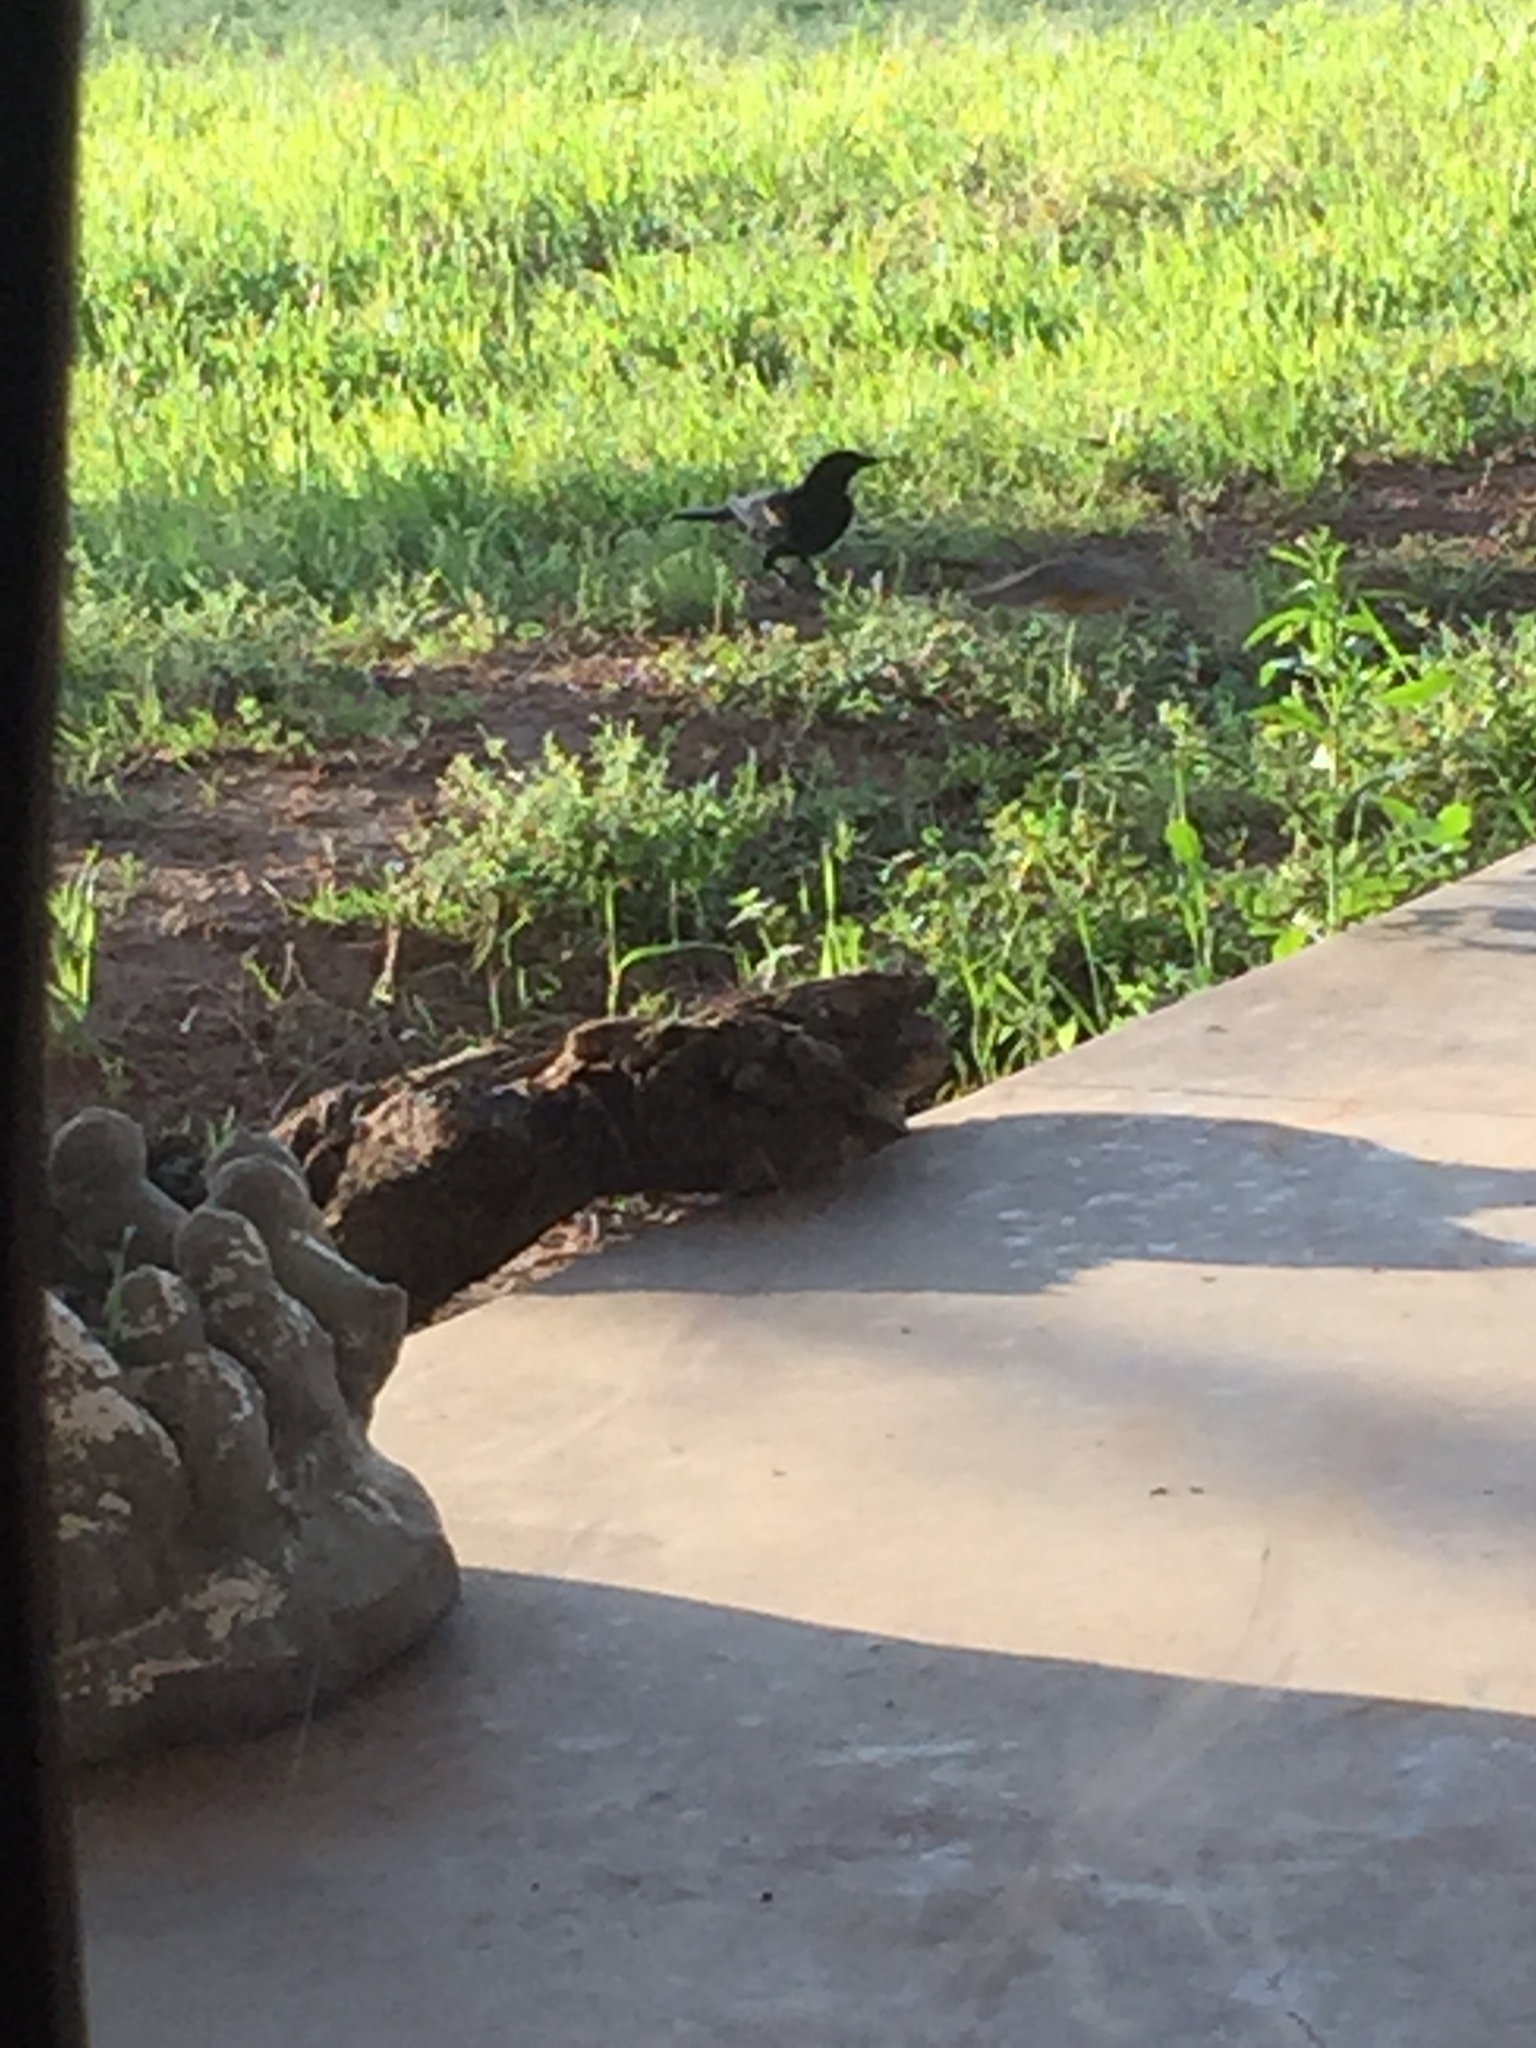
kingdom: Animalia
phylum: Chordata
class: Aves
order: Passeriformes
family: Icteridae
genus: Agelaius
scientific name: Agelaius phoeniceus
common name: Red-winged blackbird
